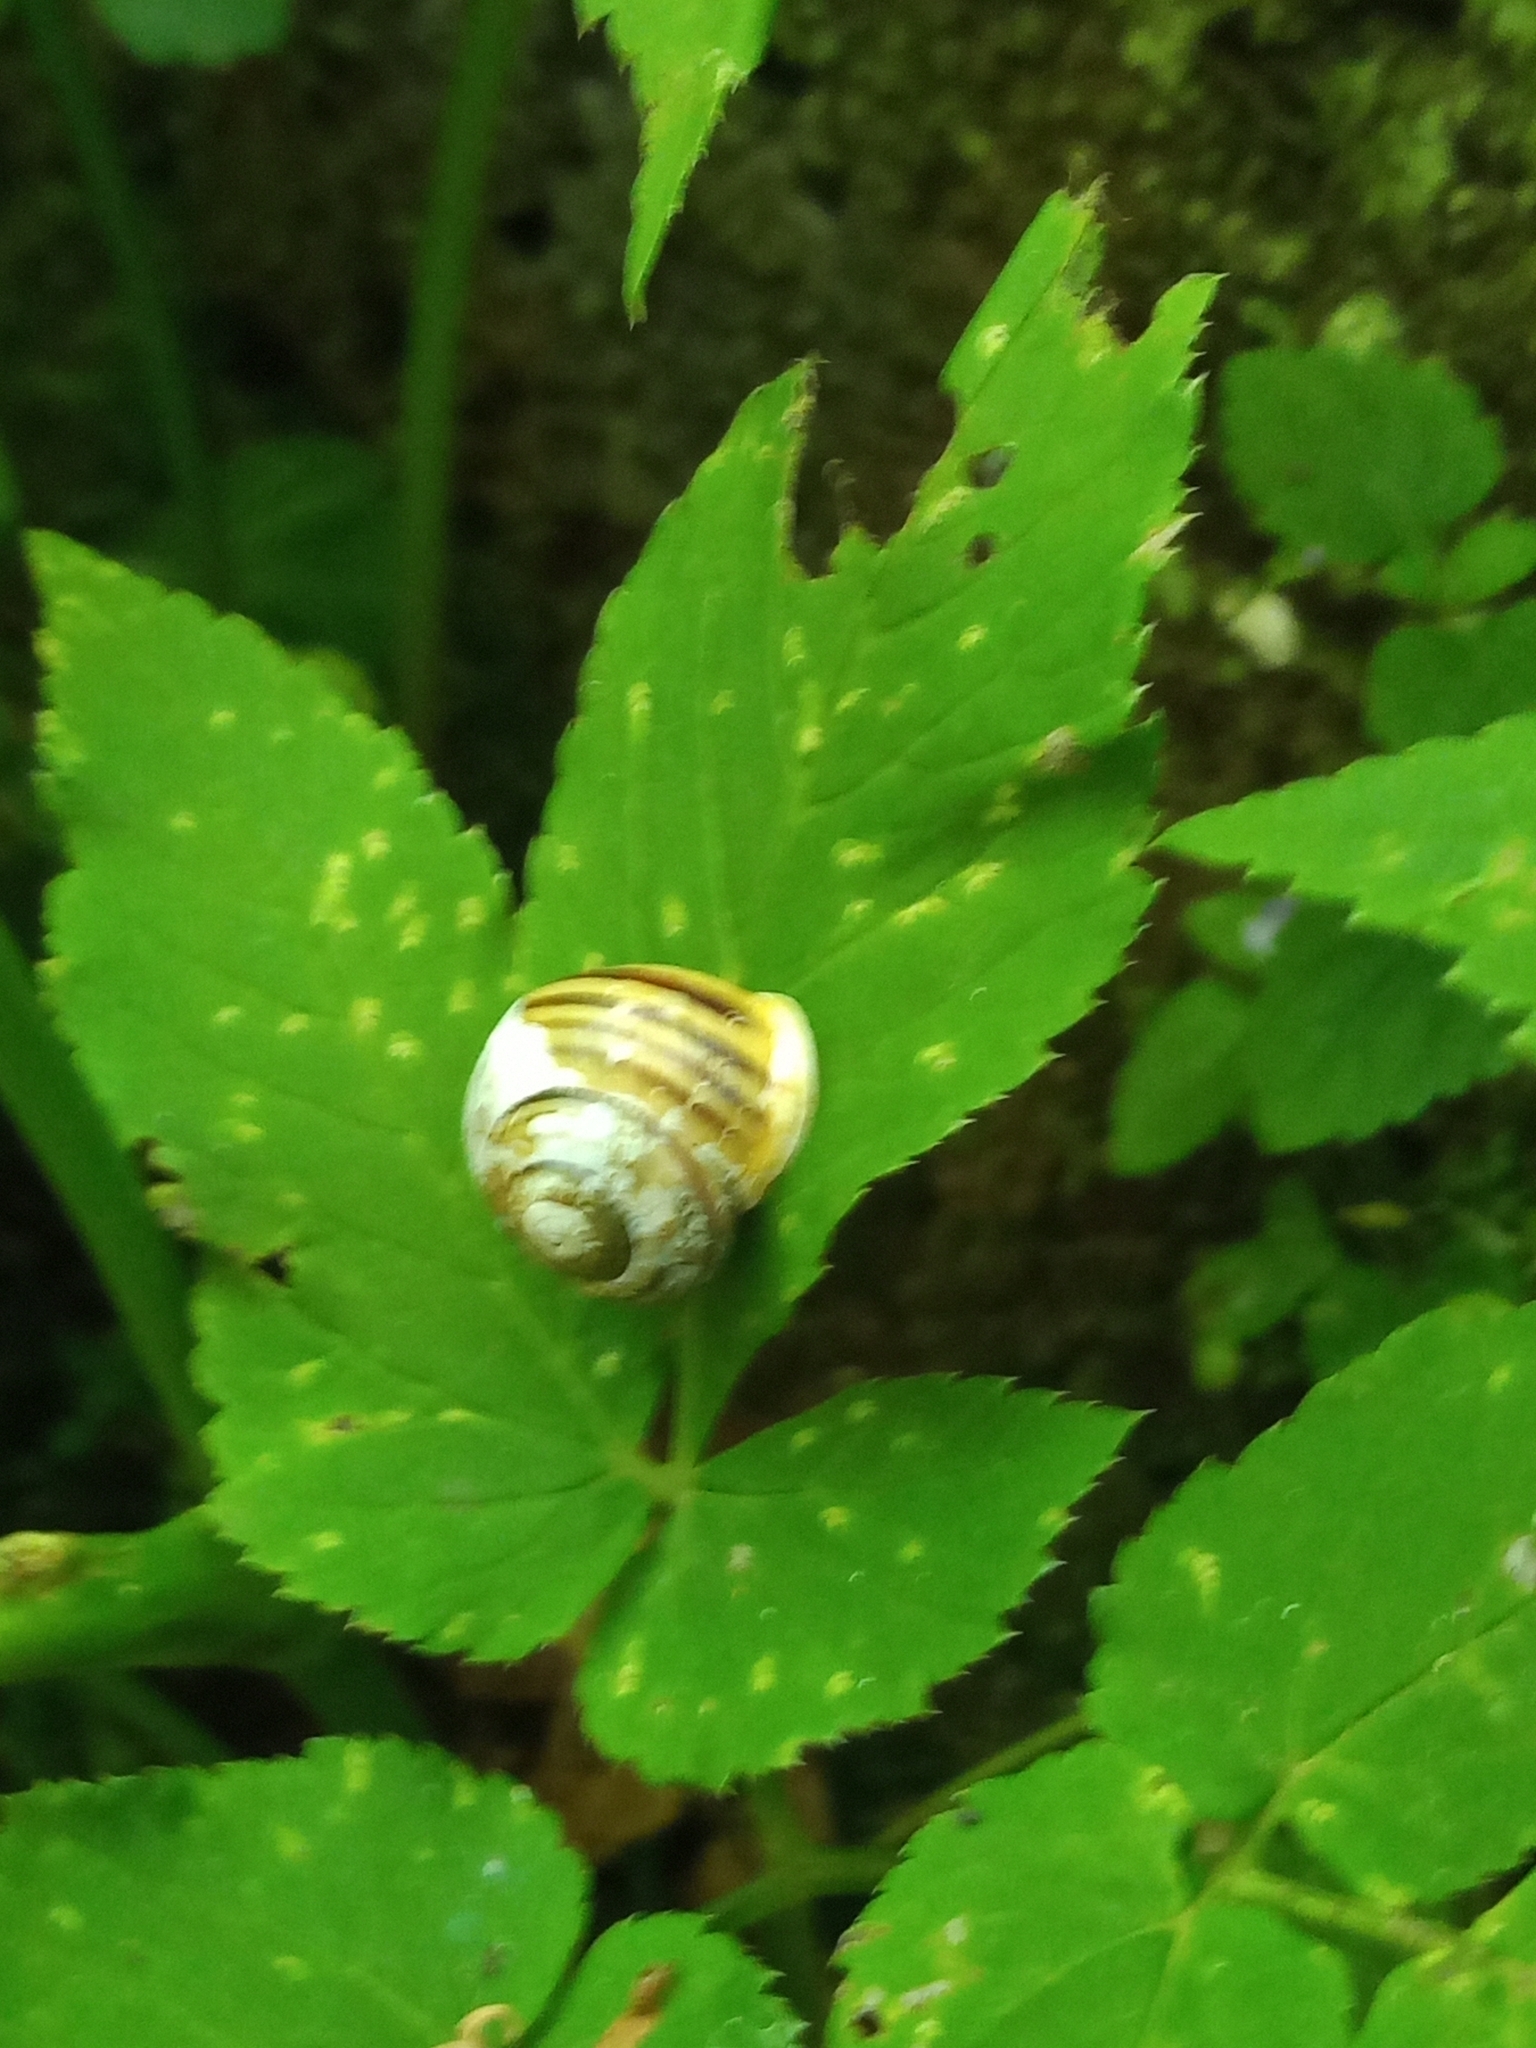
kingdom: Animalia
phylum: Mollusca
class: Gastropoda
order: Stylommatophora
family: Helicidae
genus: Cepaea
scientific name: Cepaea hortensis
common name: White-lip gardensnail
